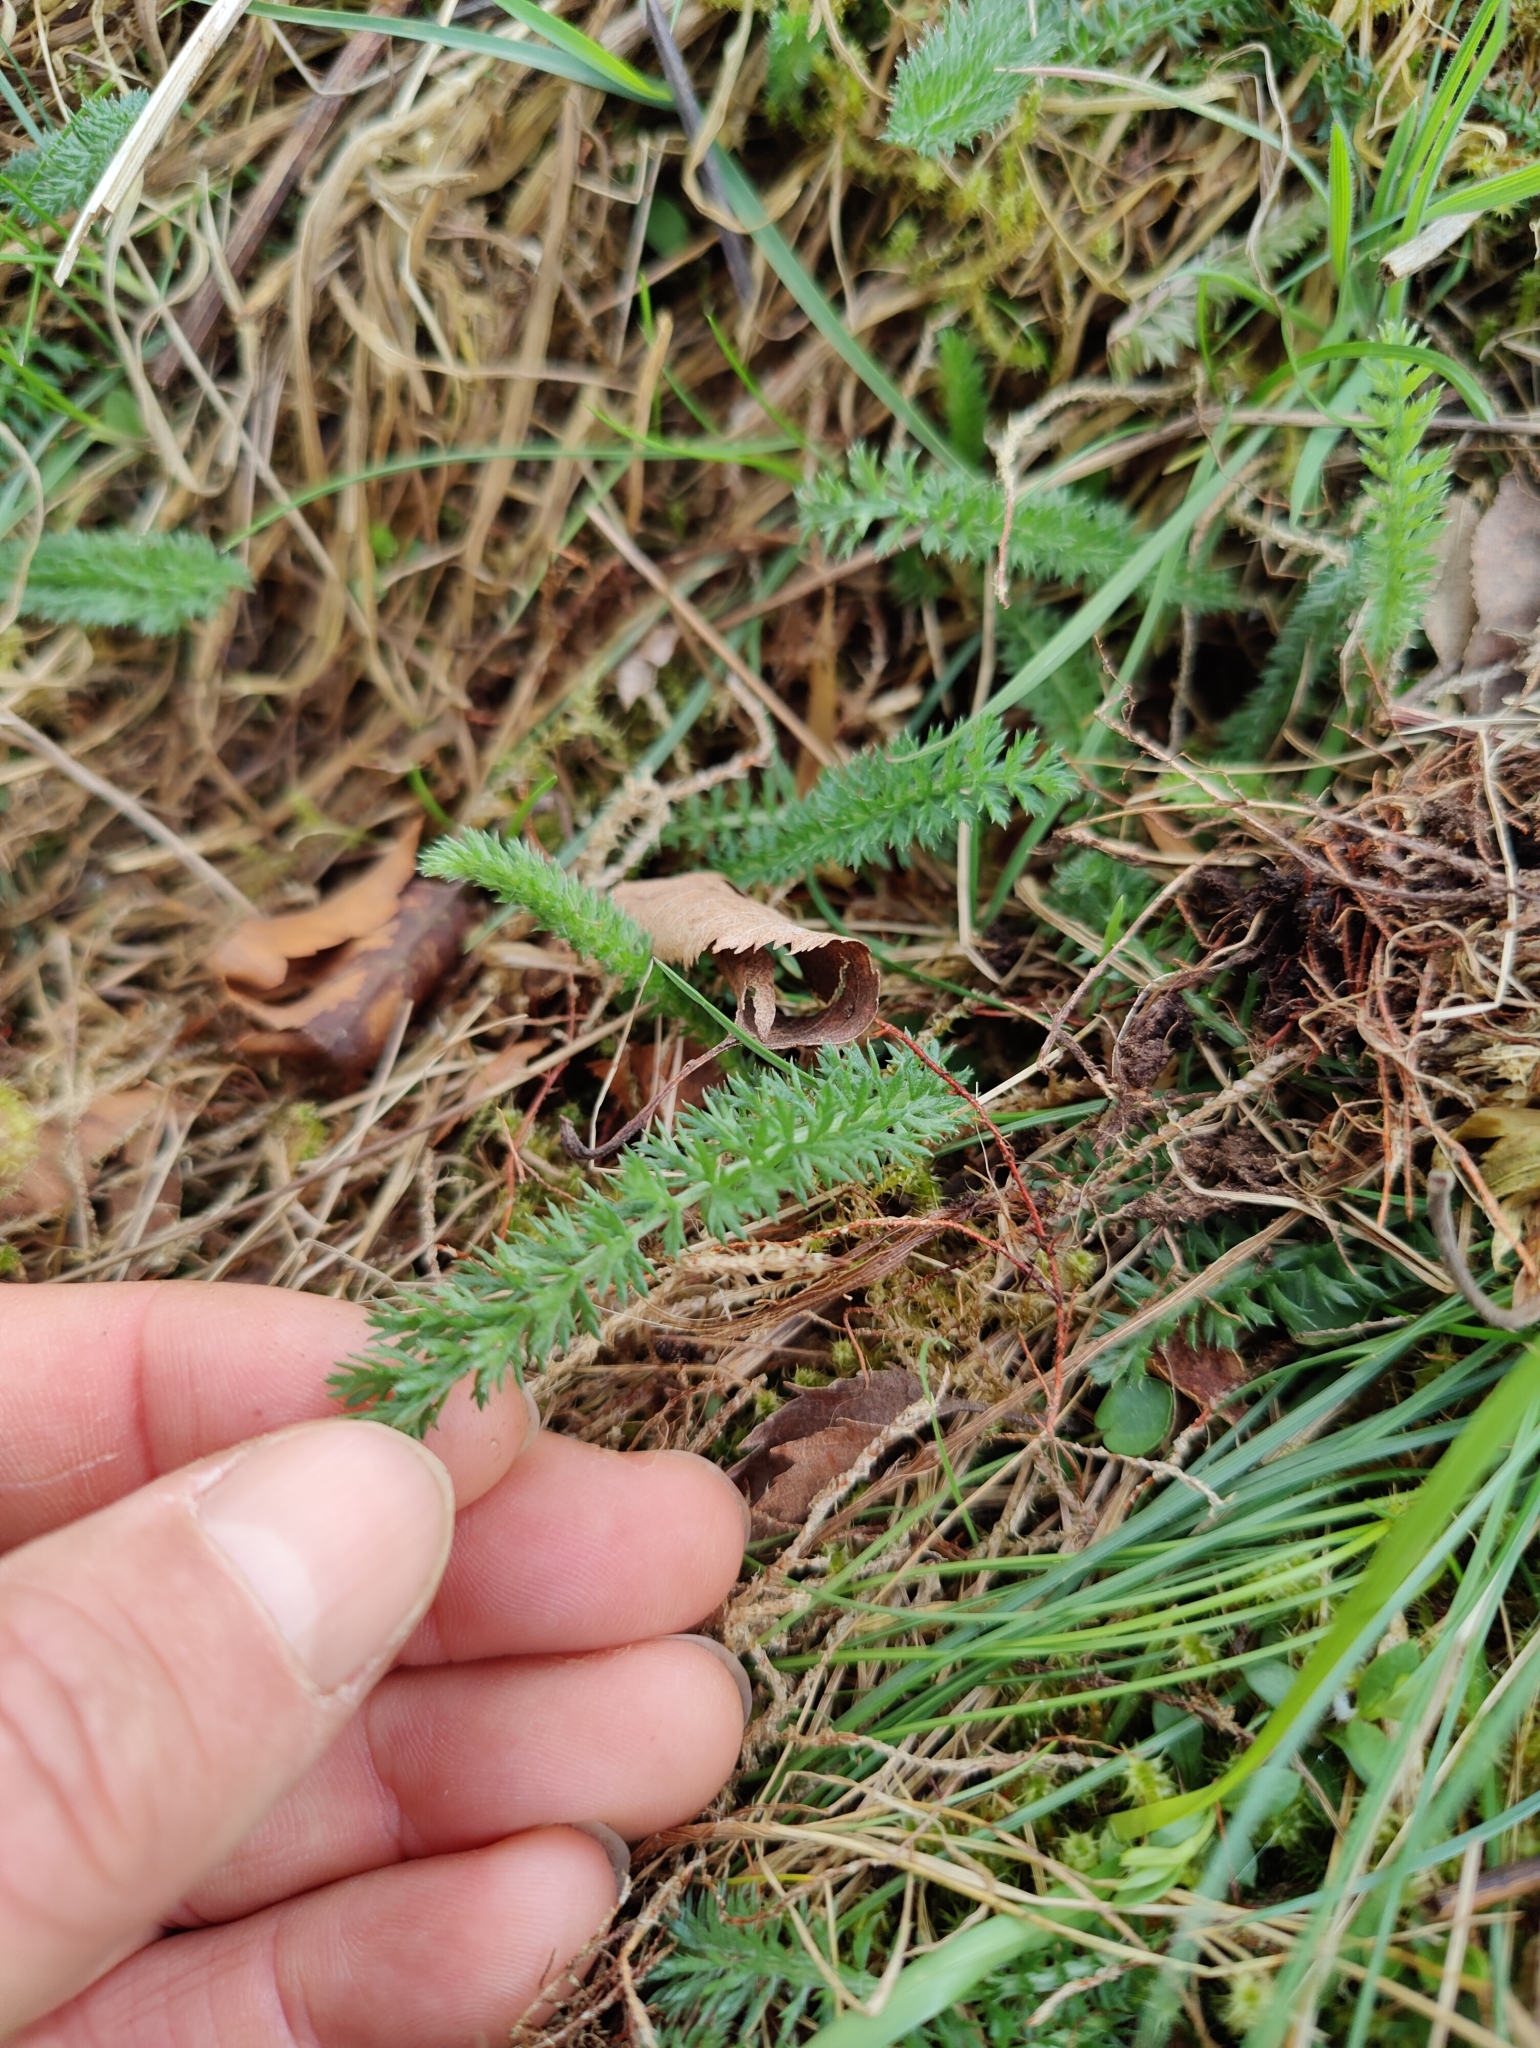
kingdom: Plantae
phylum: Tracheophyta
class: Magnoliopsida
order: Asterales
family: Asteraceae
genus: Achillea
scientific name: Achillea millefolium
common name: Yarrow
